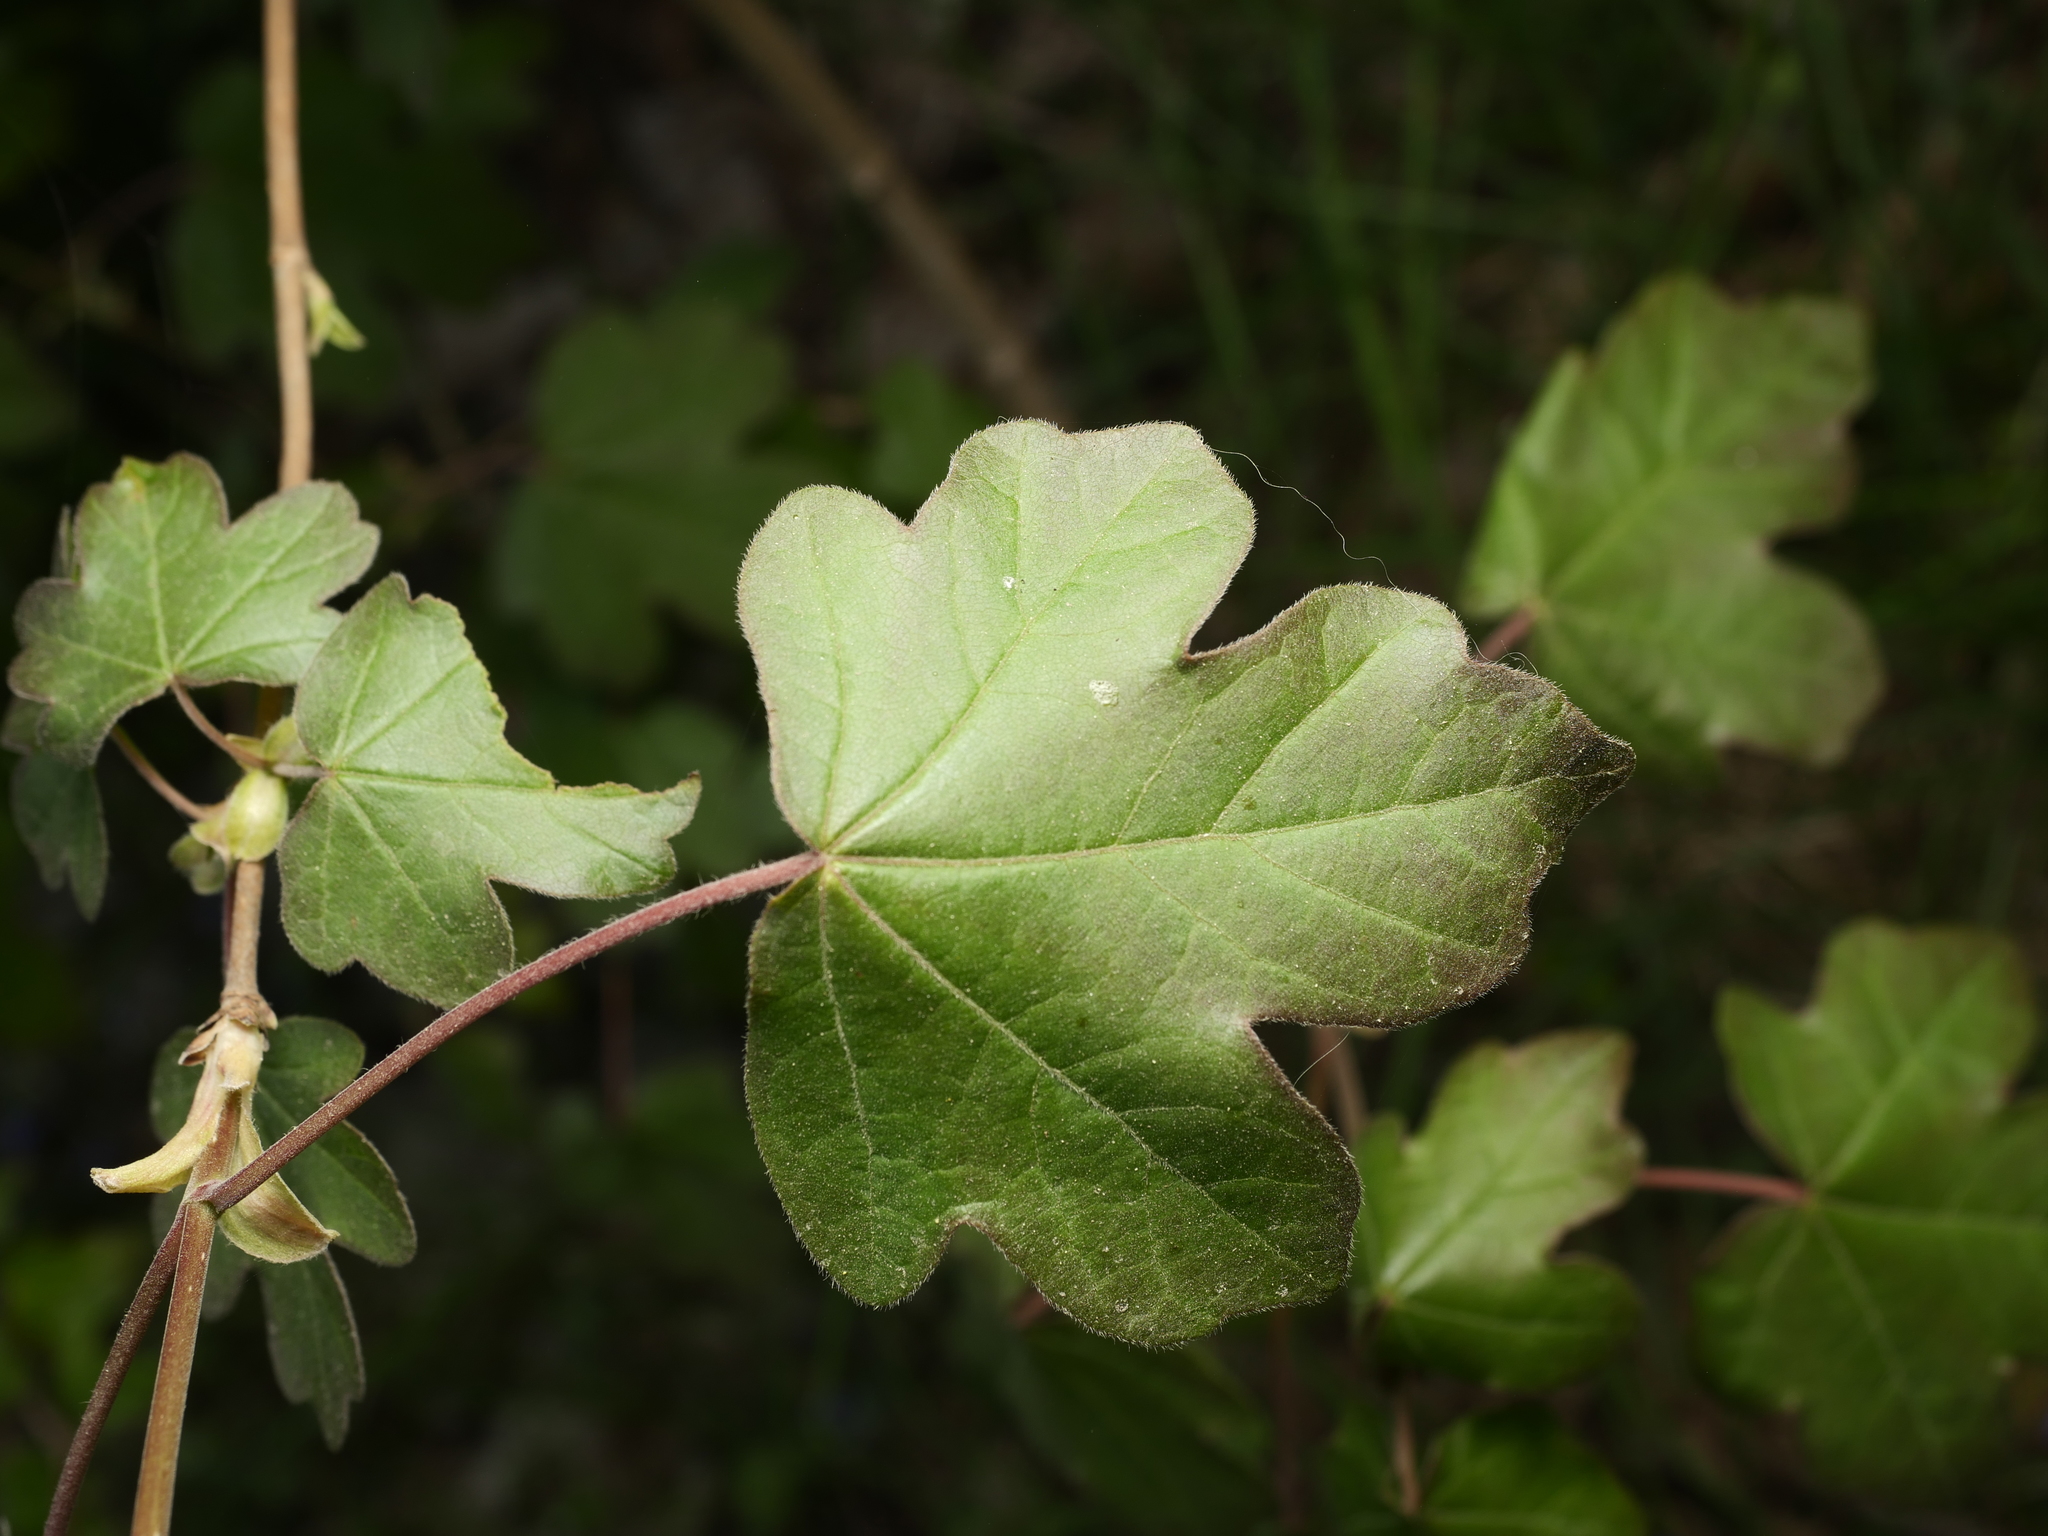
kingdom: Plantae
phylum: Tracheophyta
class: Magnoliopsida
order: Sapindales
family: Sapindaceae
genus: Acer
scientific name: Acer campestre
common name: Field maple
